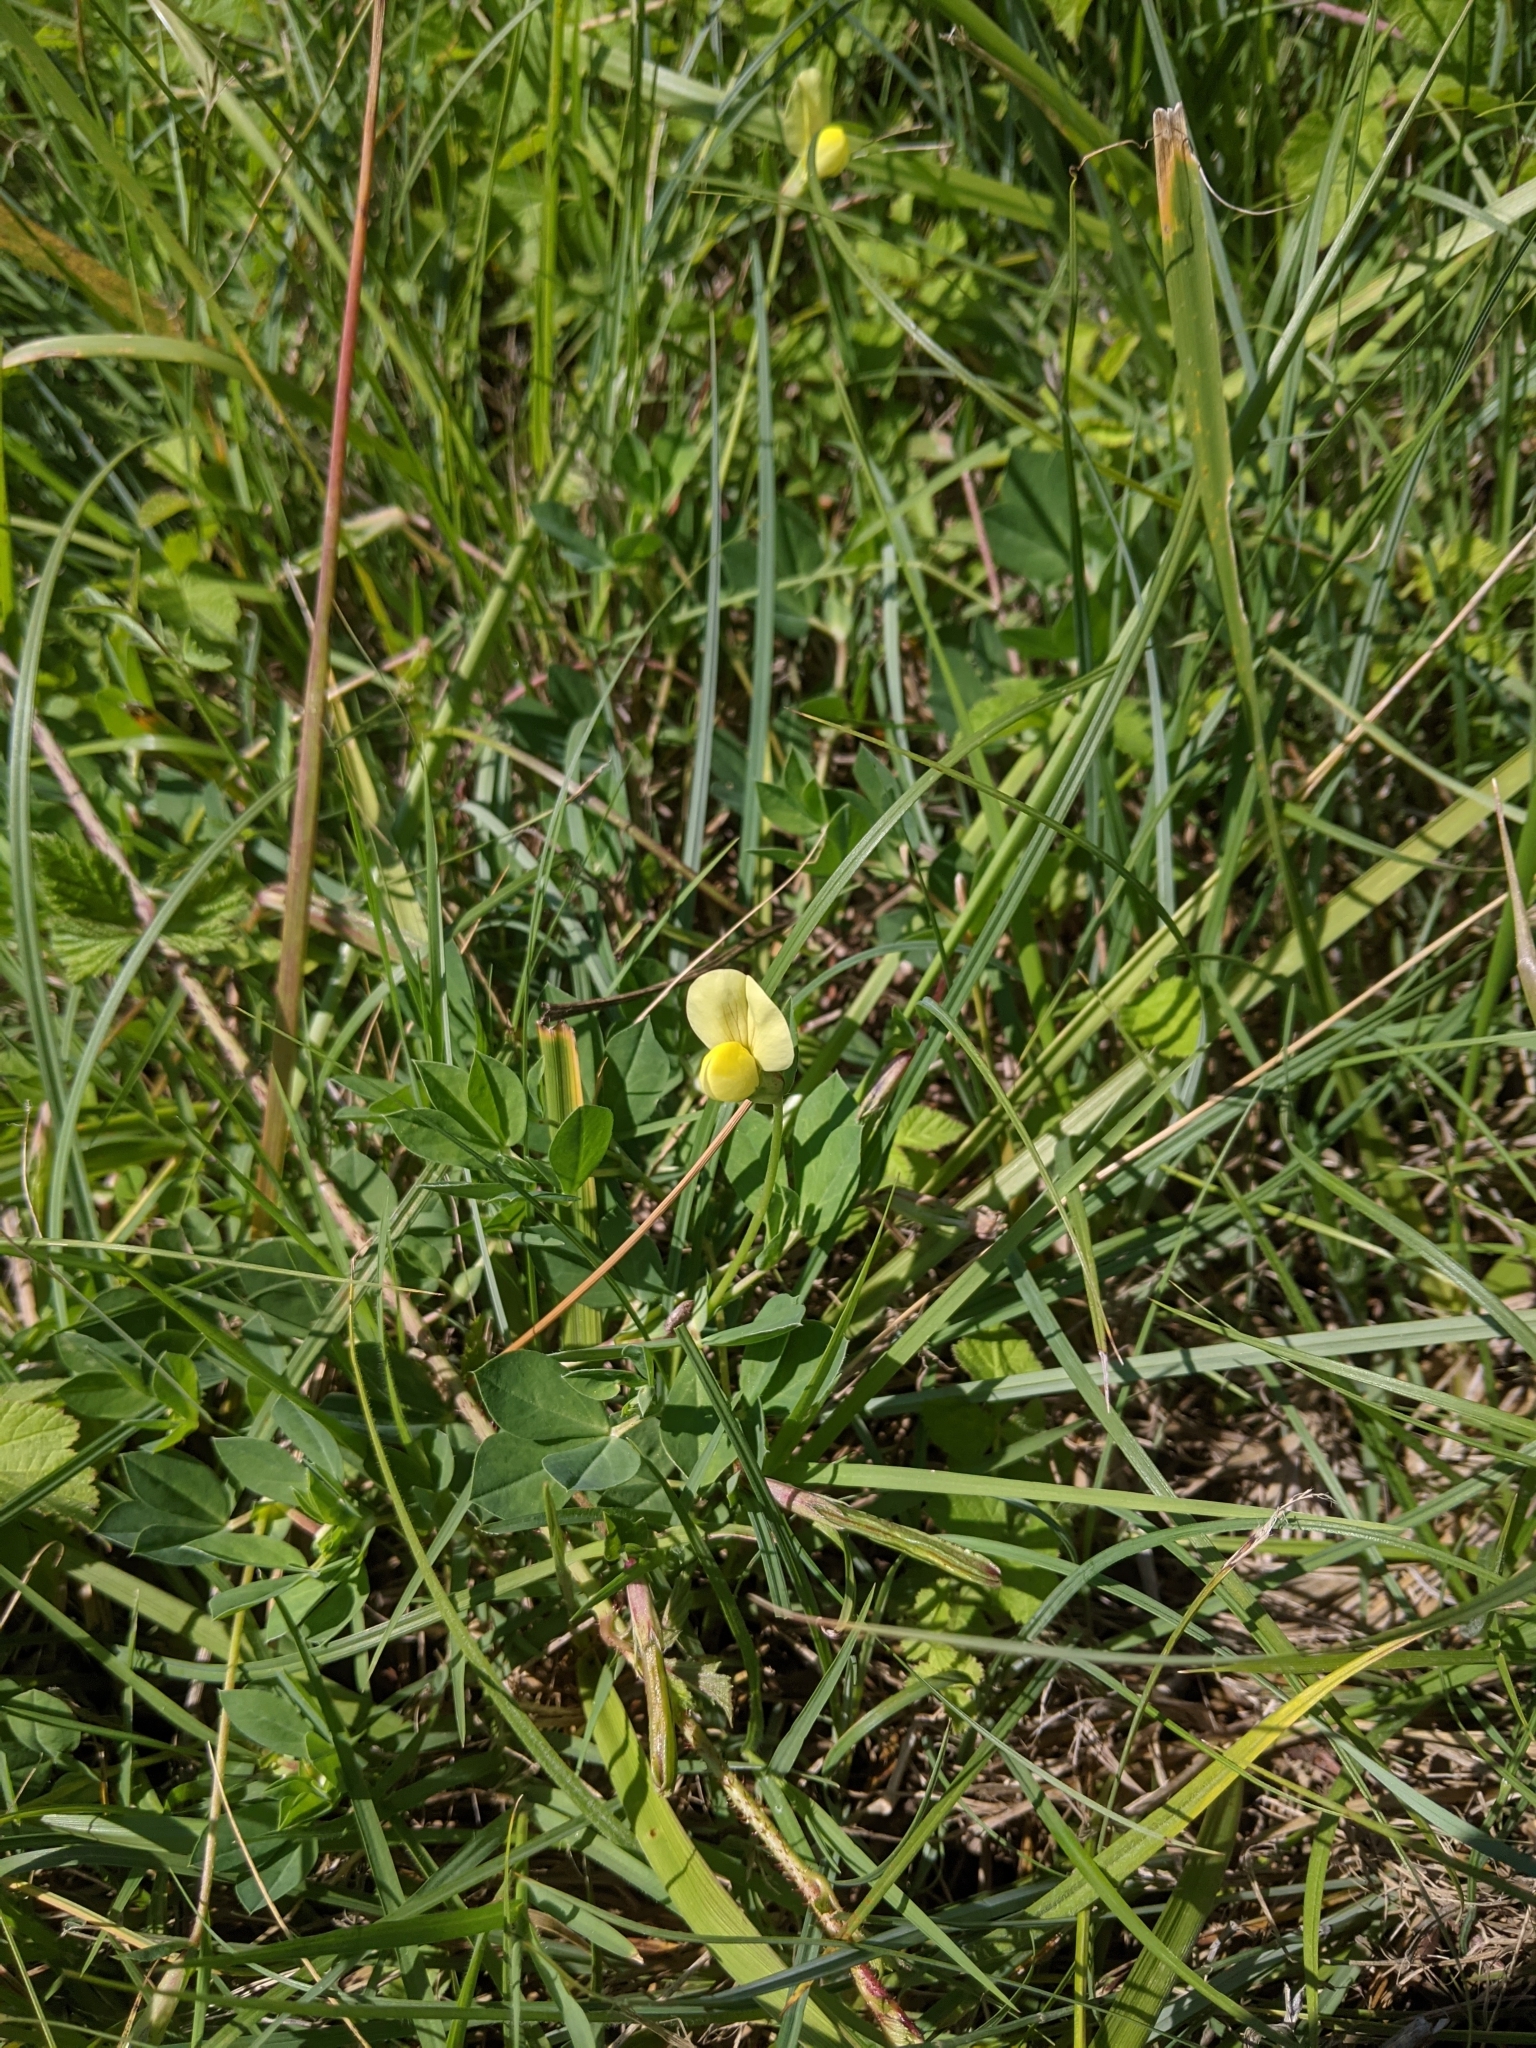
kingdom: Plantae
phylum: Tracheophyta
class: Magnoliopsida
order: Fabales
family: Fabaceae
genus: Lotus
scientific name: Lotus maritimus
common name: Dragon's-teeth
